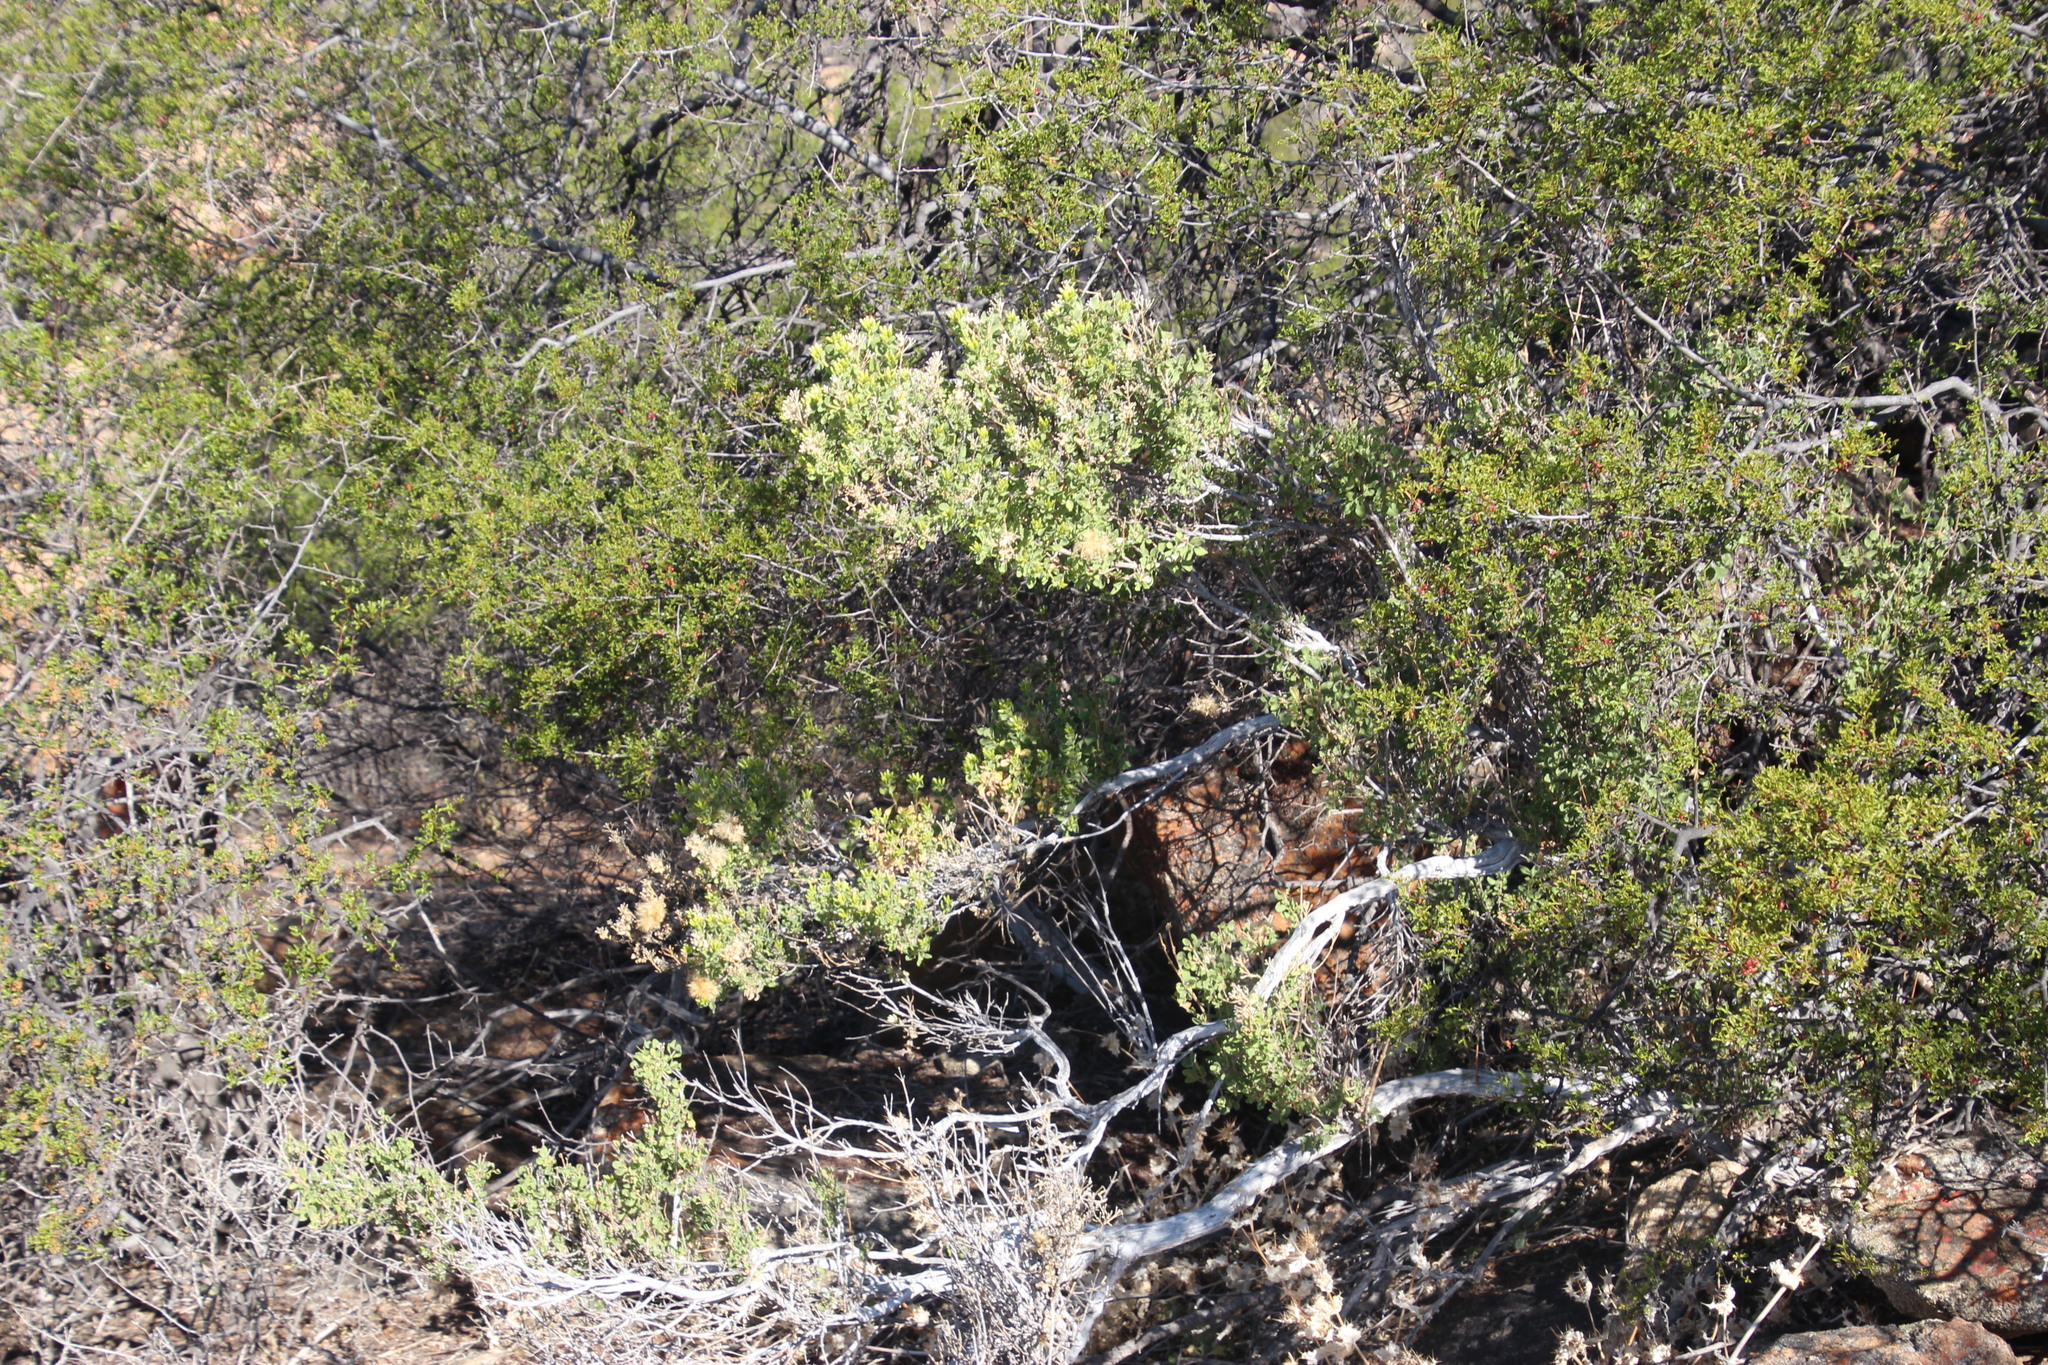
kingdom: Plantae
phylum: Tracheophyta
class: Magnoliopsida
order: Asterales
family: Asteraceae
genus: Pteronia
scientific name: Pteronia divaricata
